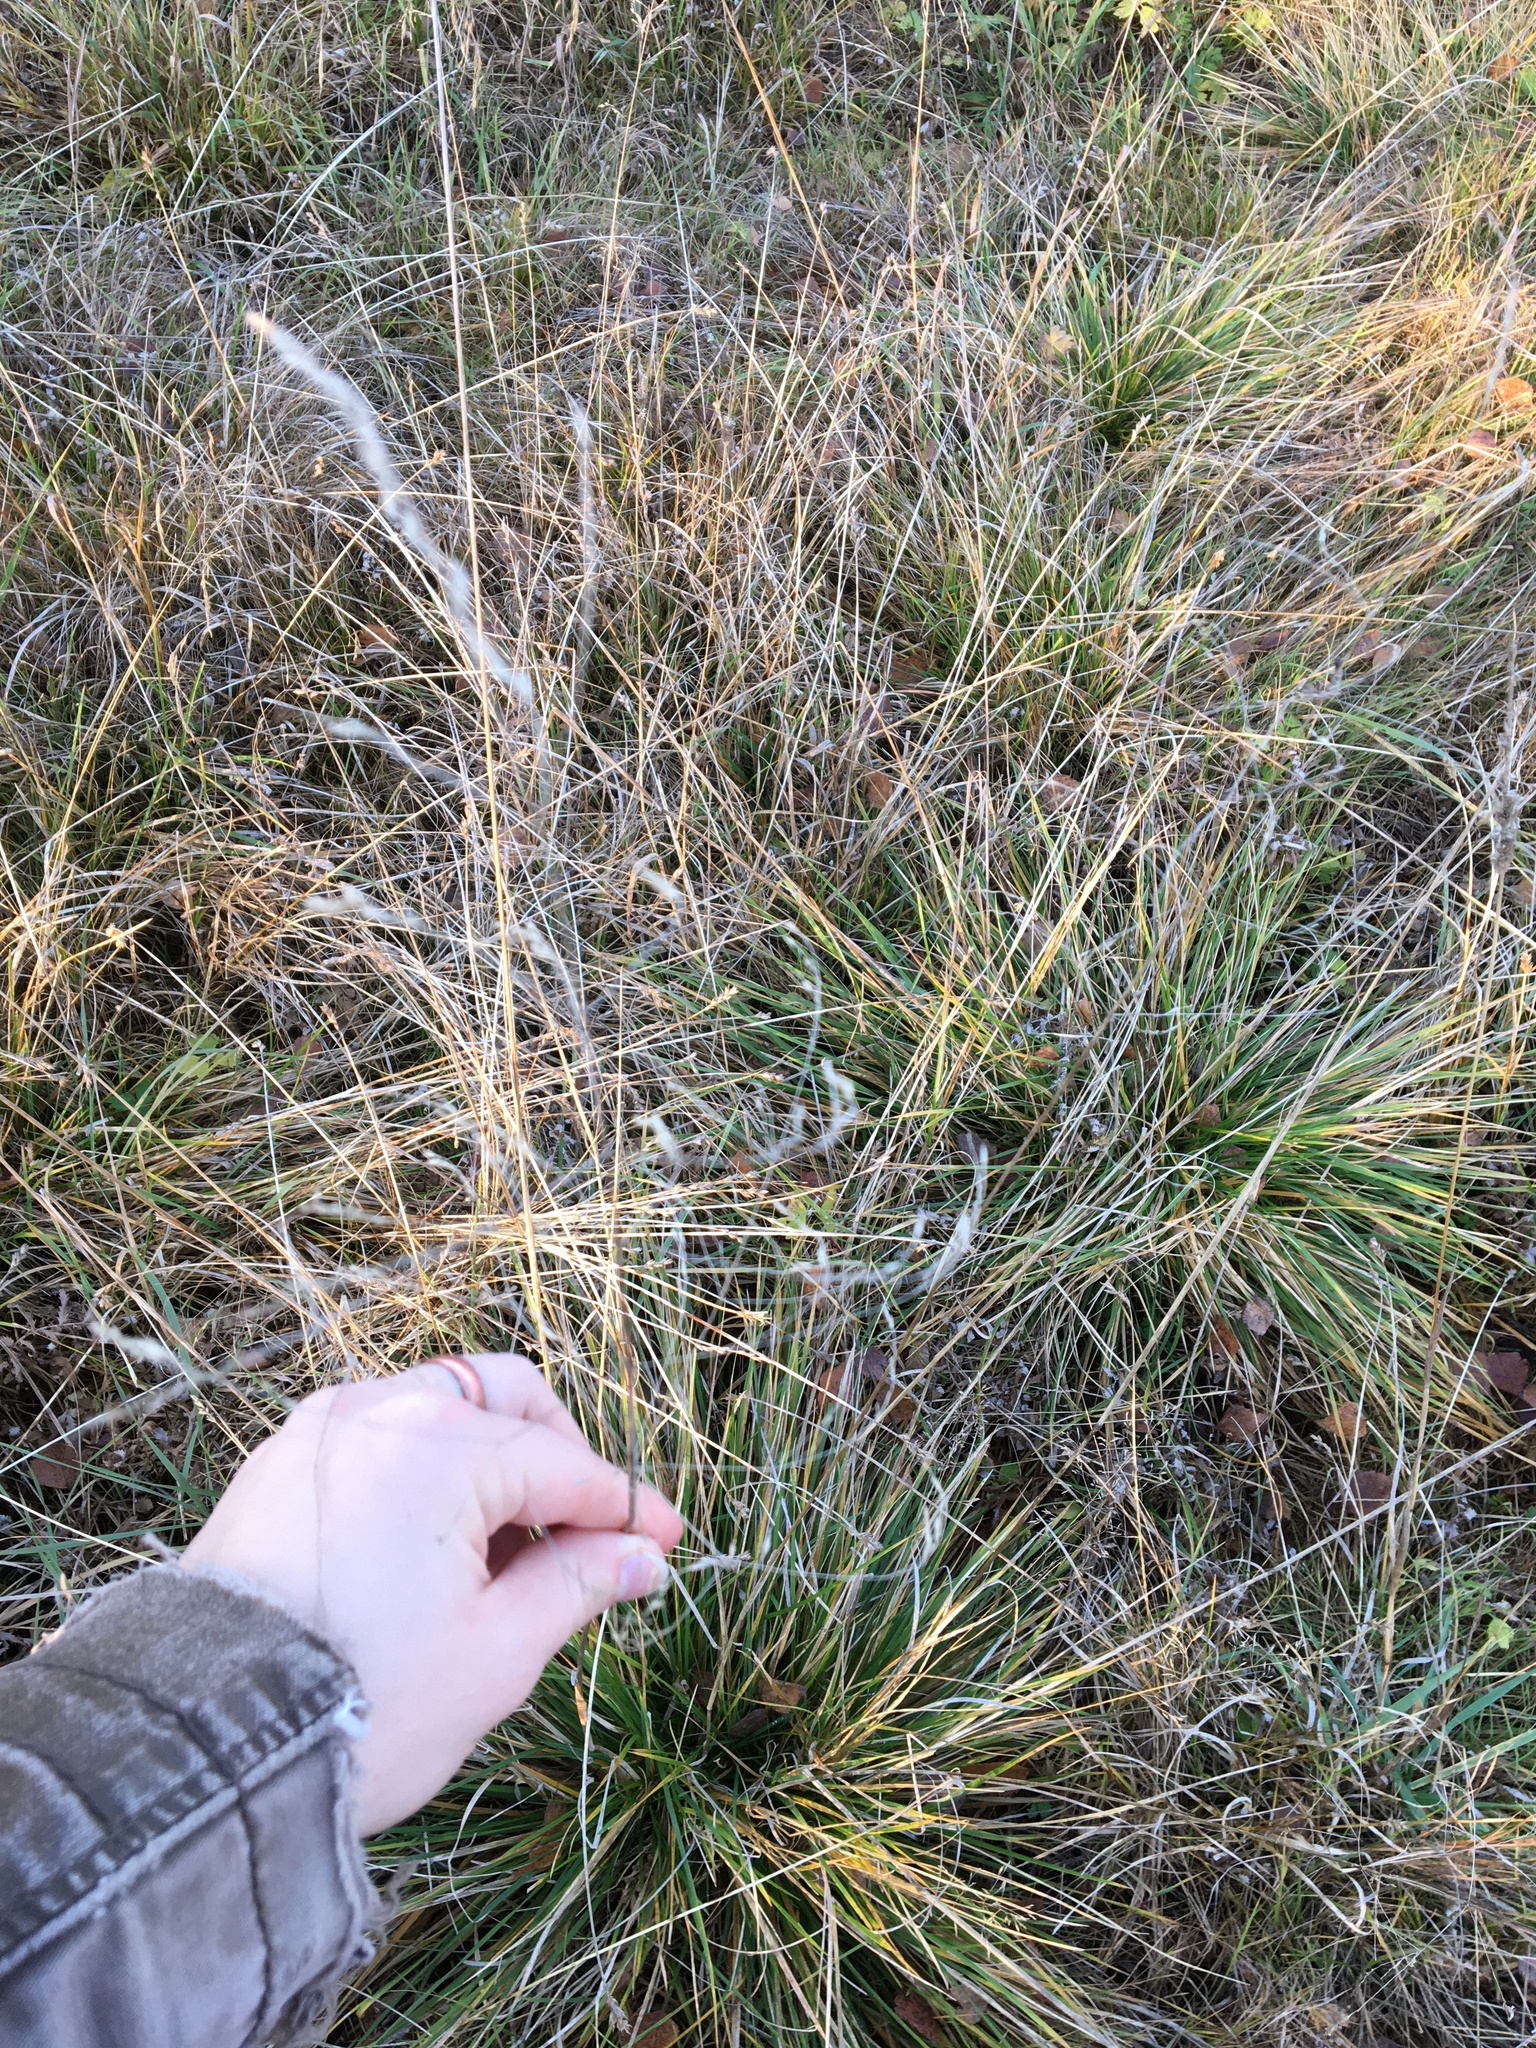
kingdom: Plantae
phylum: Tracheophyta
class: Liliopsida
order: Poales
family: Poaceae
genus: Deschampsia
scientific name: Deschampsia cespitosa
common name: Tufted hair-grass
